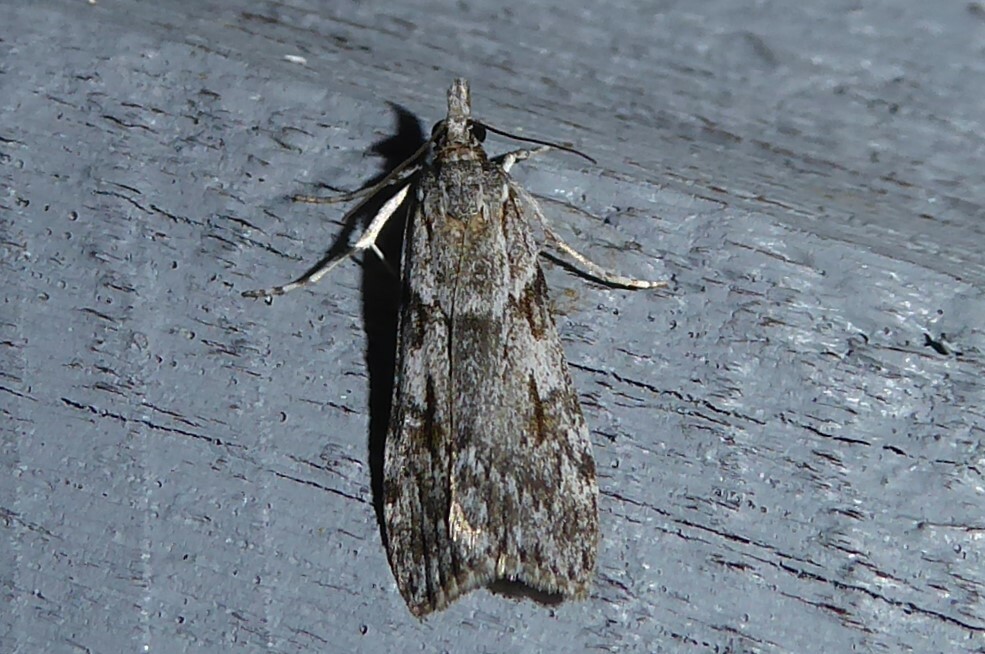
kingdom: Animalia
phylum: Arthropoda
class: Insecta
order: Lepidoptera
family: Crambidae
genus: Scoparia
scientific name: Scoparia halopis
